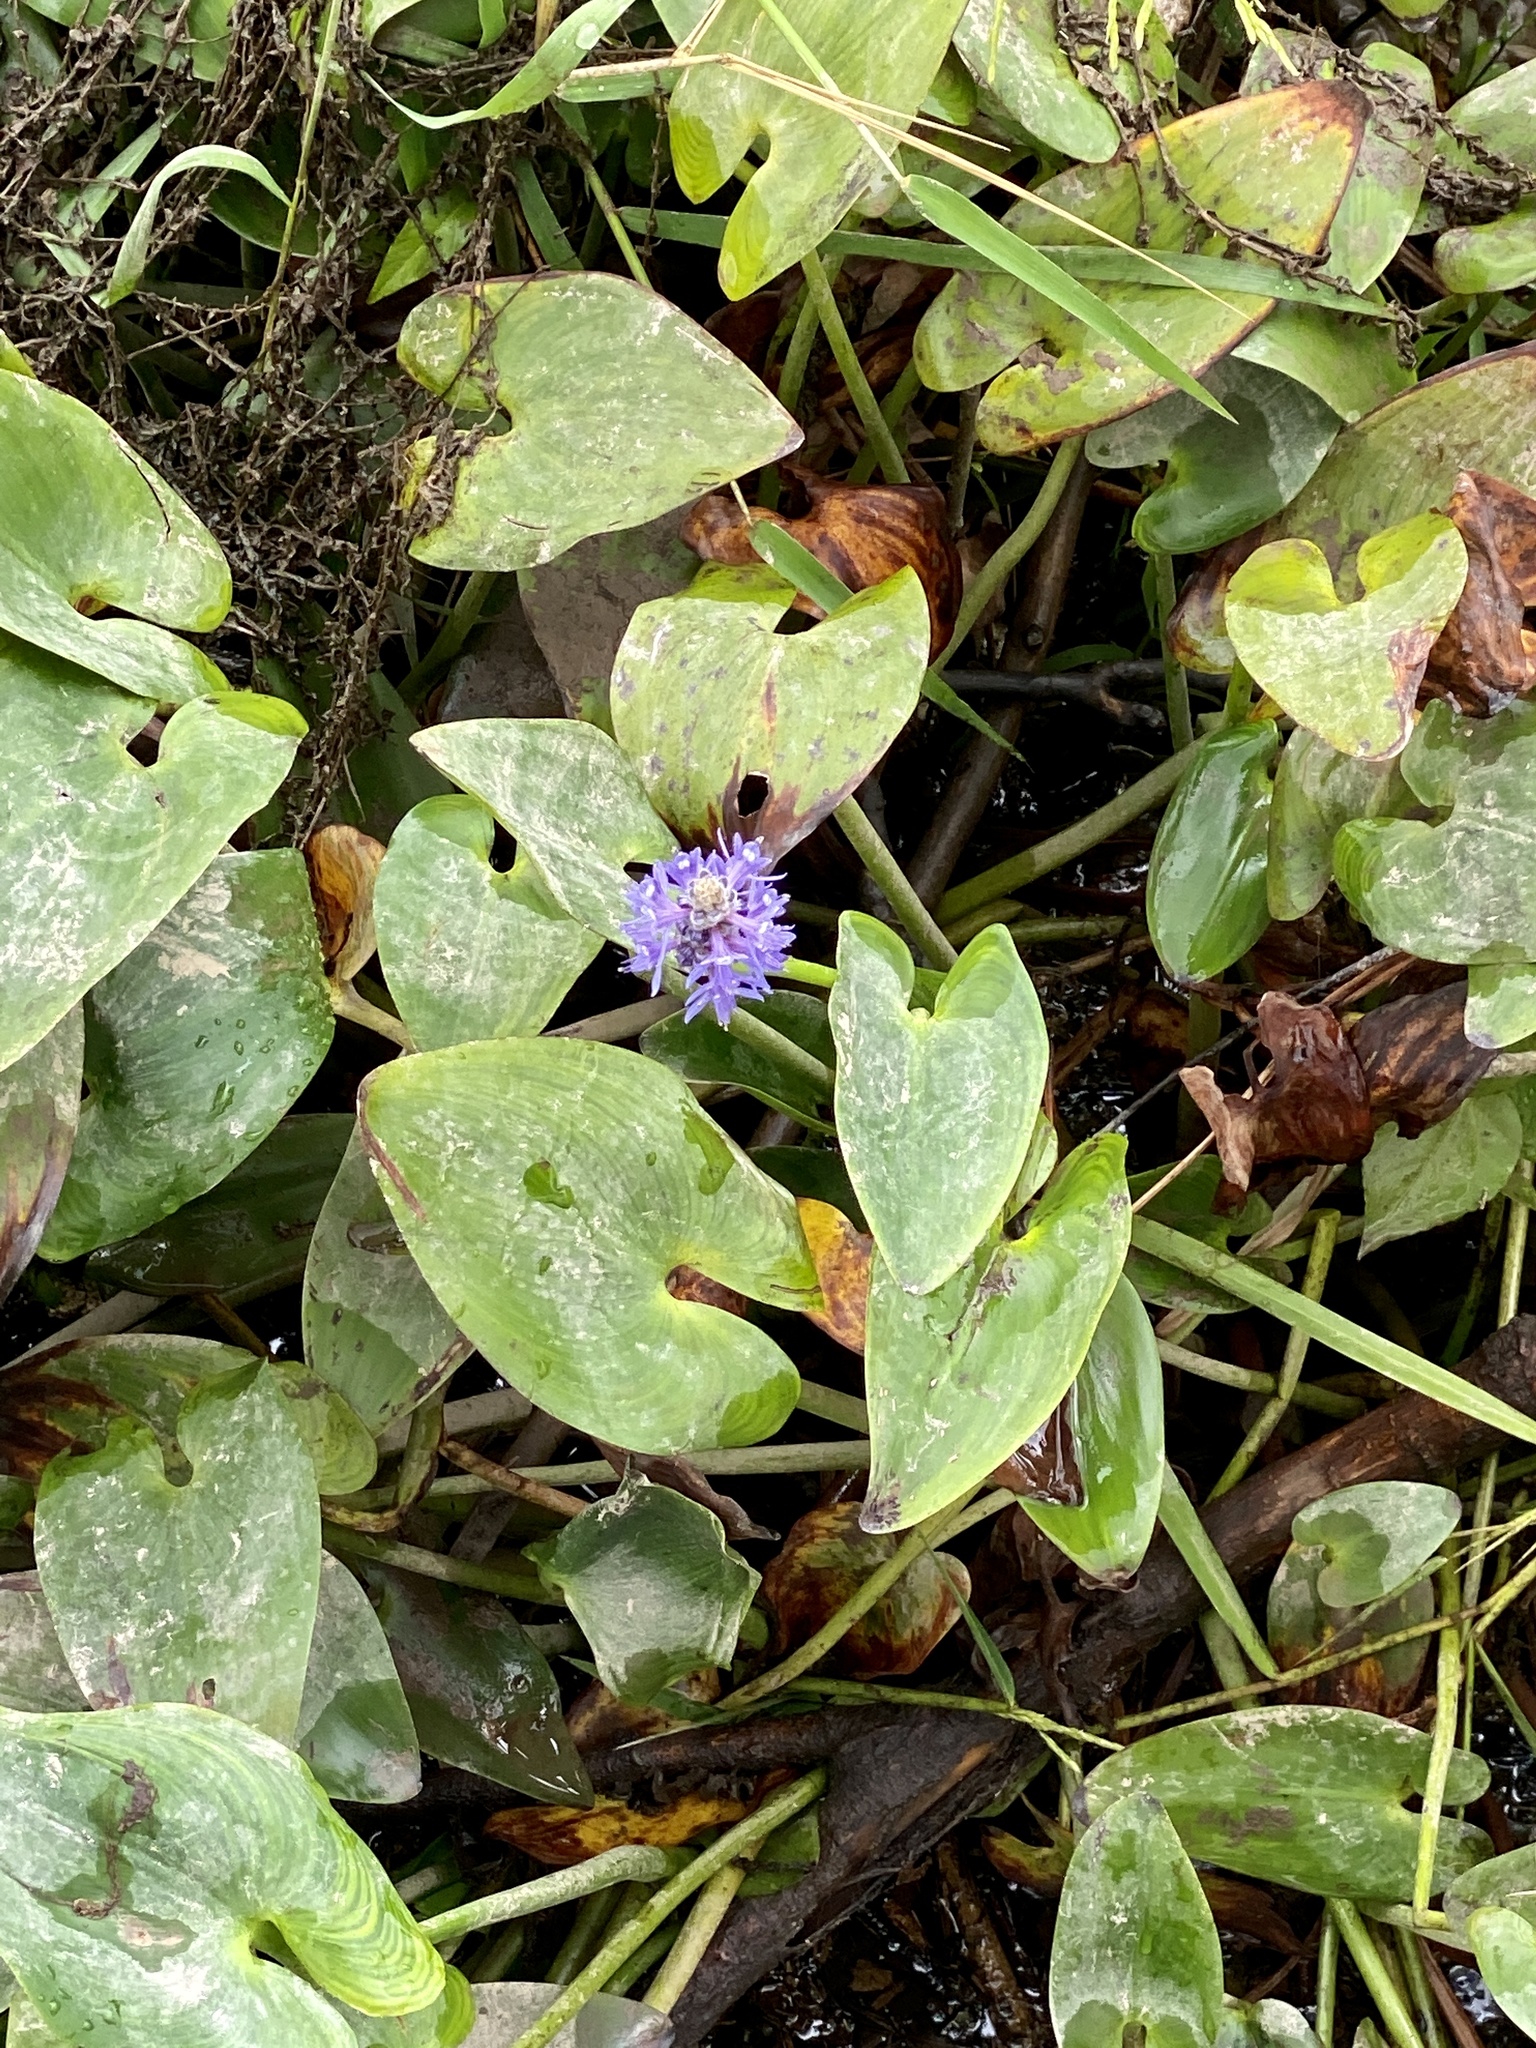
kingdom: Plantae
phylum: Tracheophyta
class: Liliopsida
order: Commelinales
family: Pontederiaceae
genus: Pontederia
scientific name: Pontederia cordata
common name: Pickerelweed
